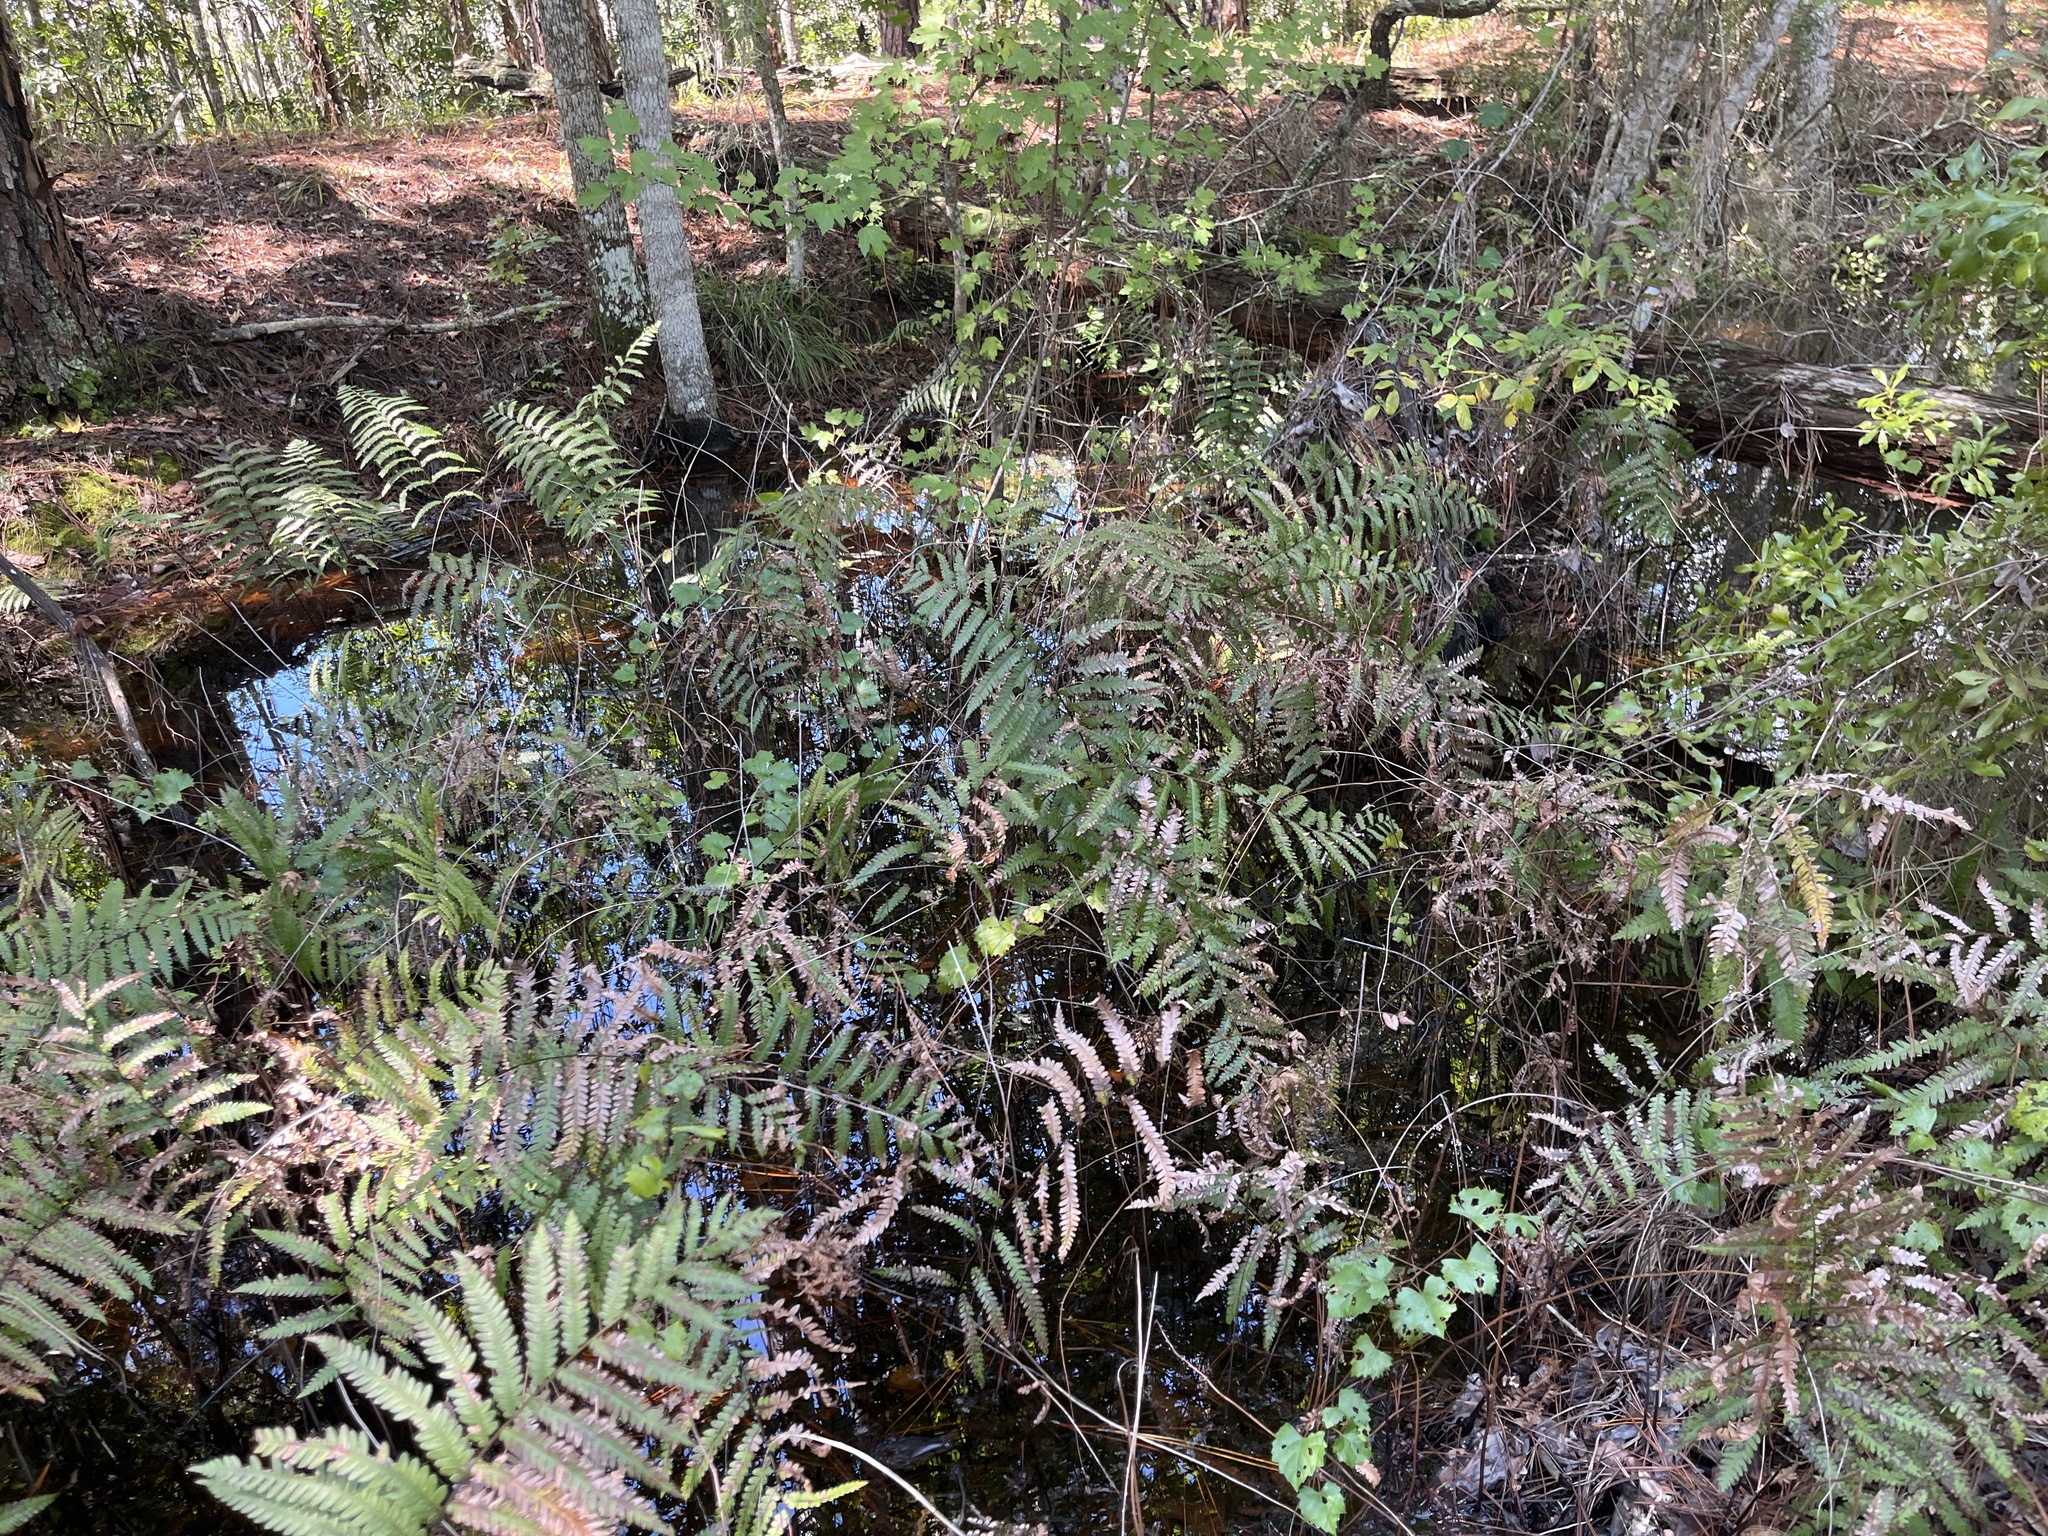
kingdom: Plantae
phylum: Tracheophyta
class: Polypodiopsida
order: Polypodiales
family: Blechnaceae
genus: Anchistea
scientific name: Anchistea virginica
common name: Virginia chain fern
